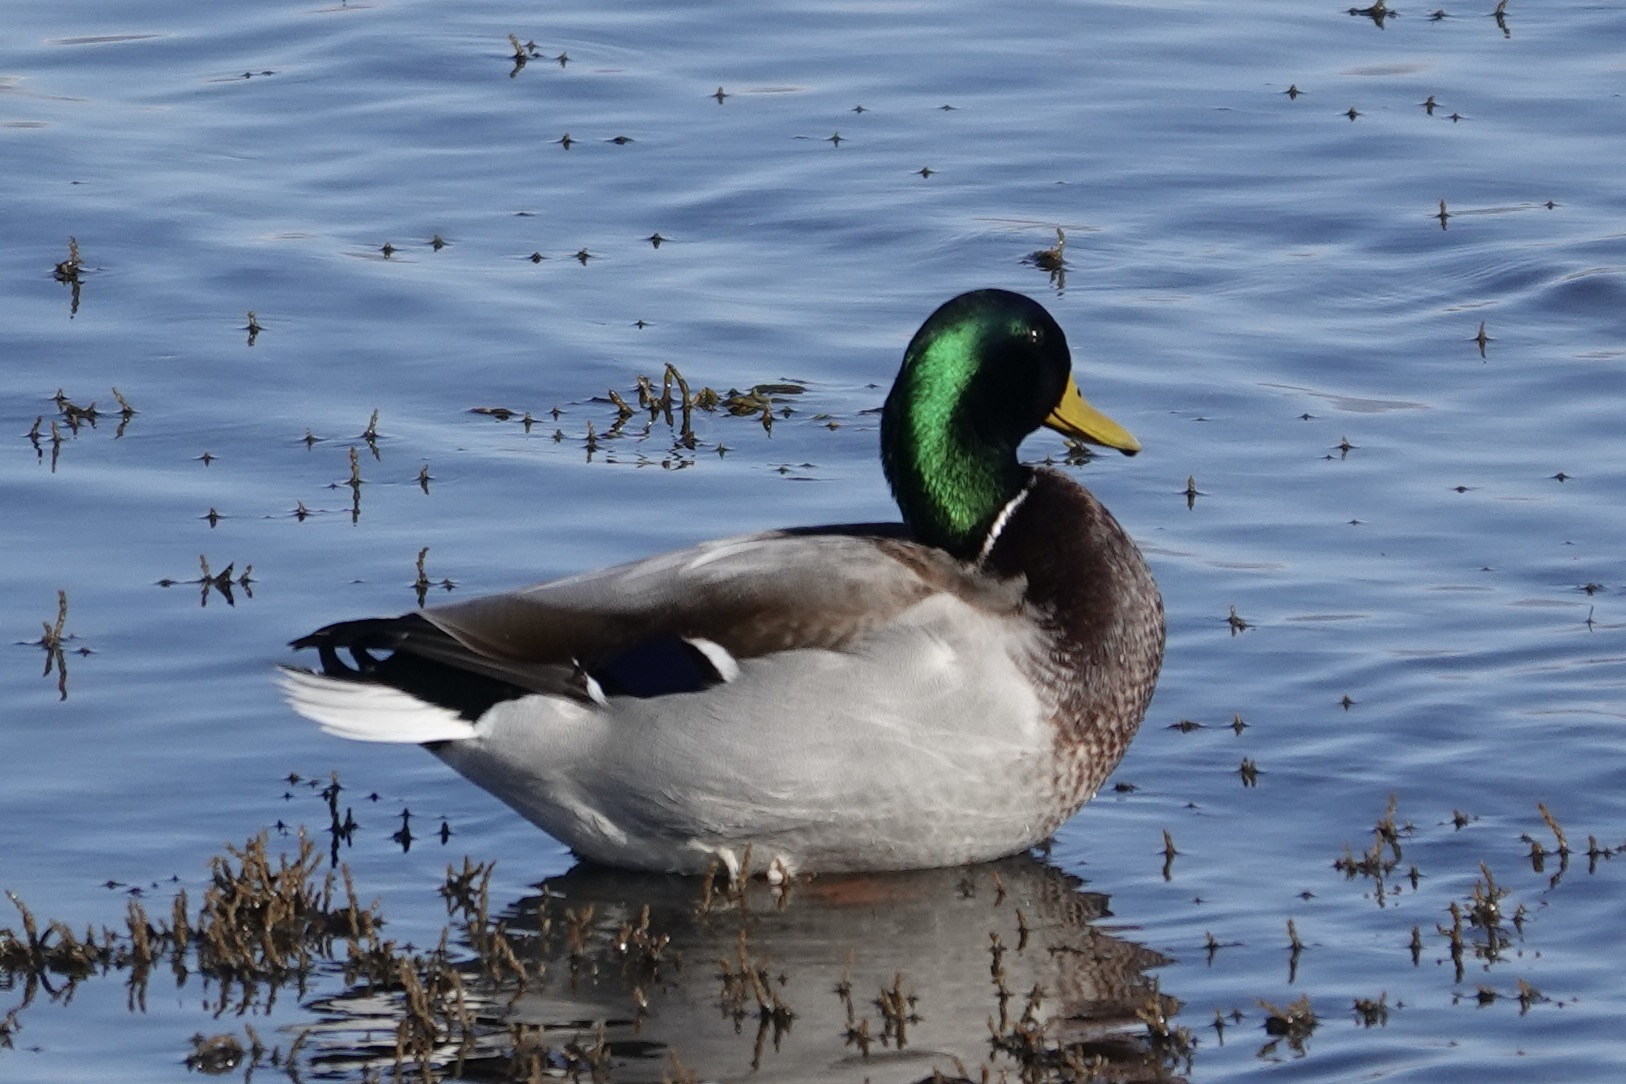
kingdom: Animalia
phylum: Chordata
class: Aves
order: Anseriformes
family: Anatidae
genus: Anas
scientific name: Anas platyrhynchos
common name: Mallard
